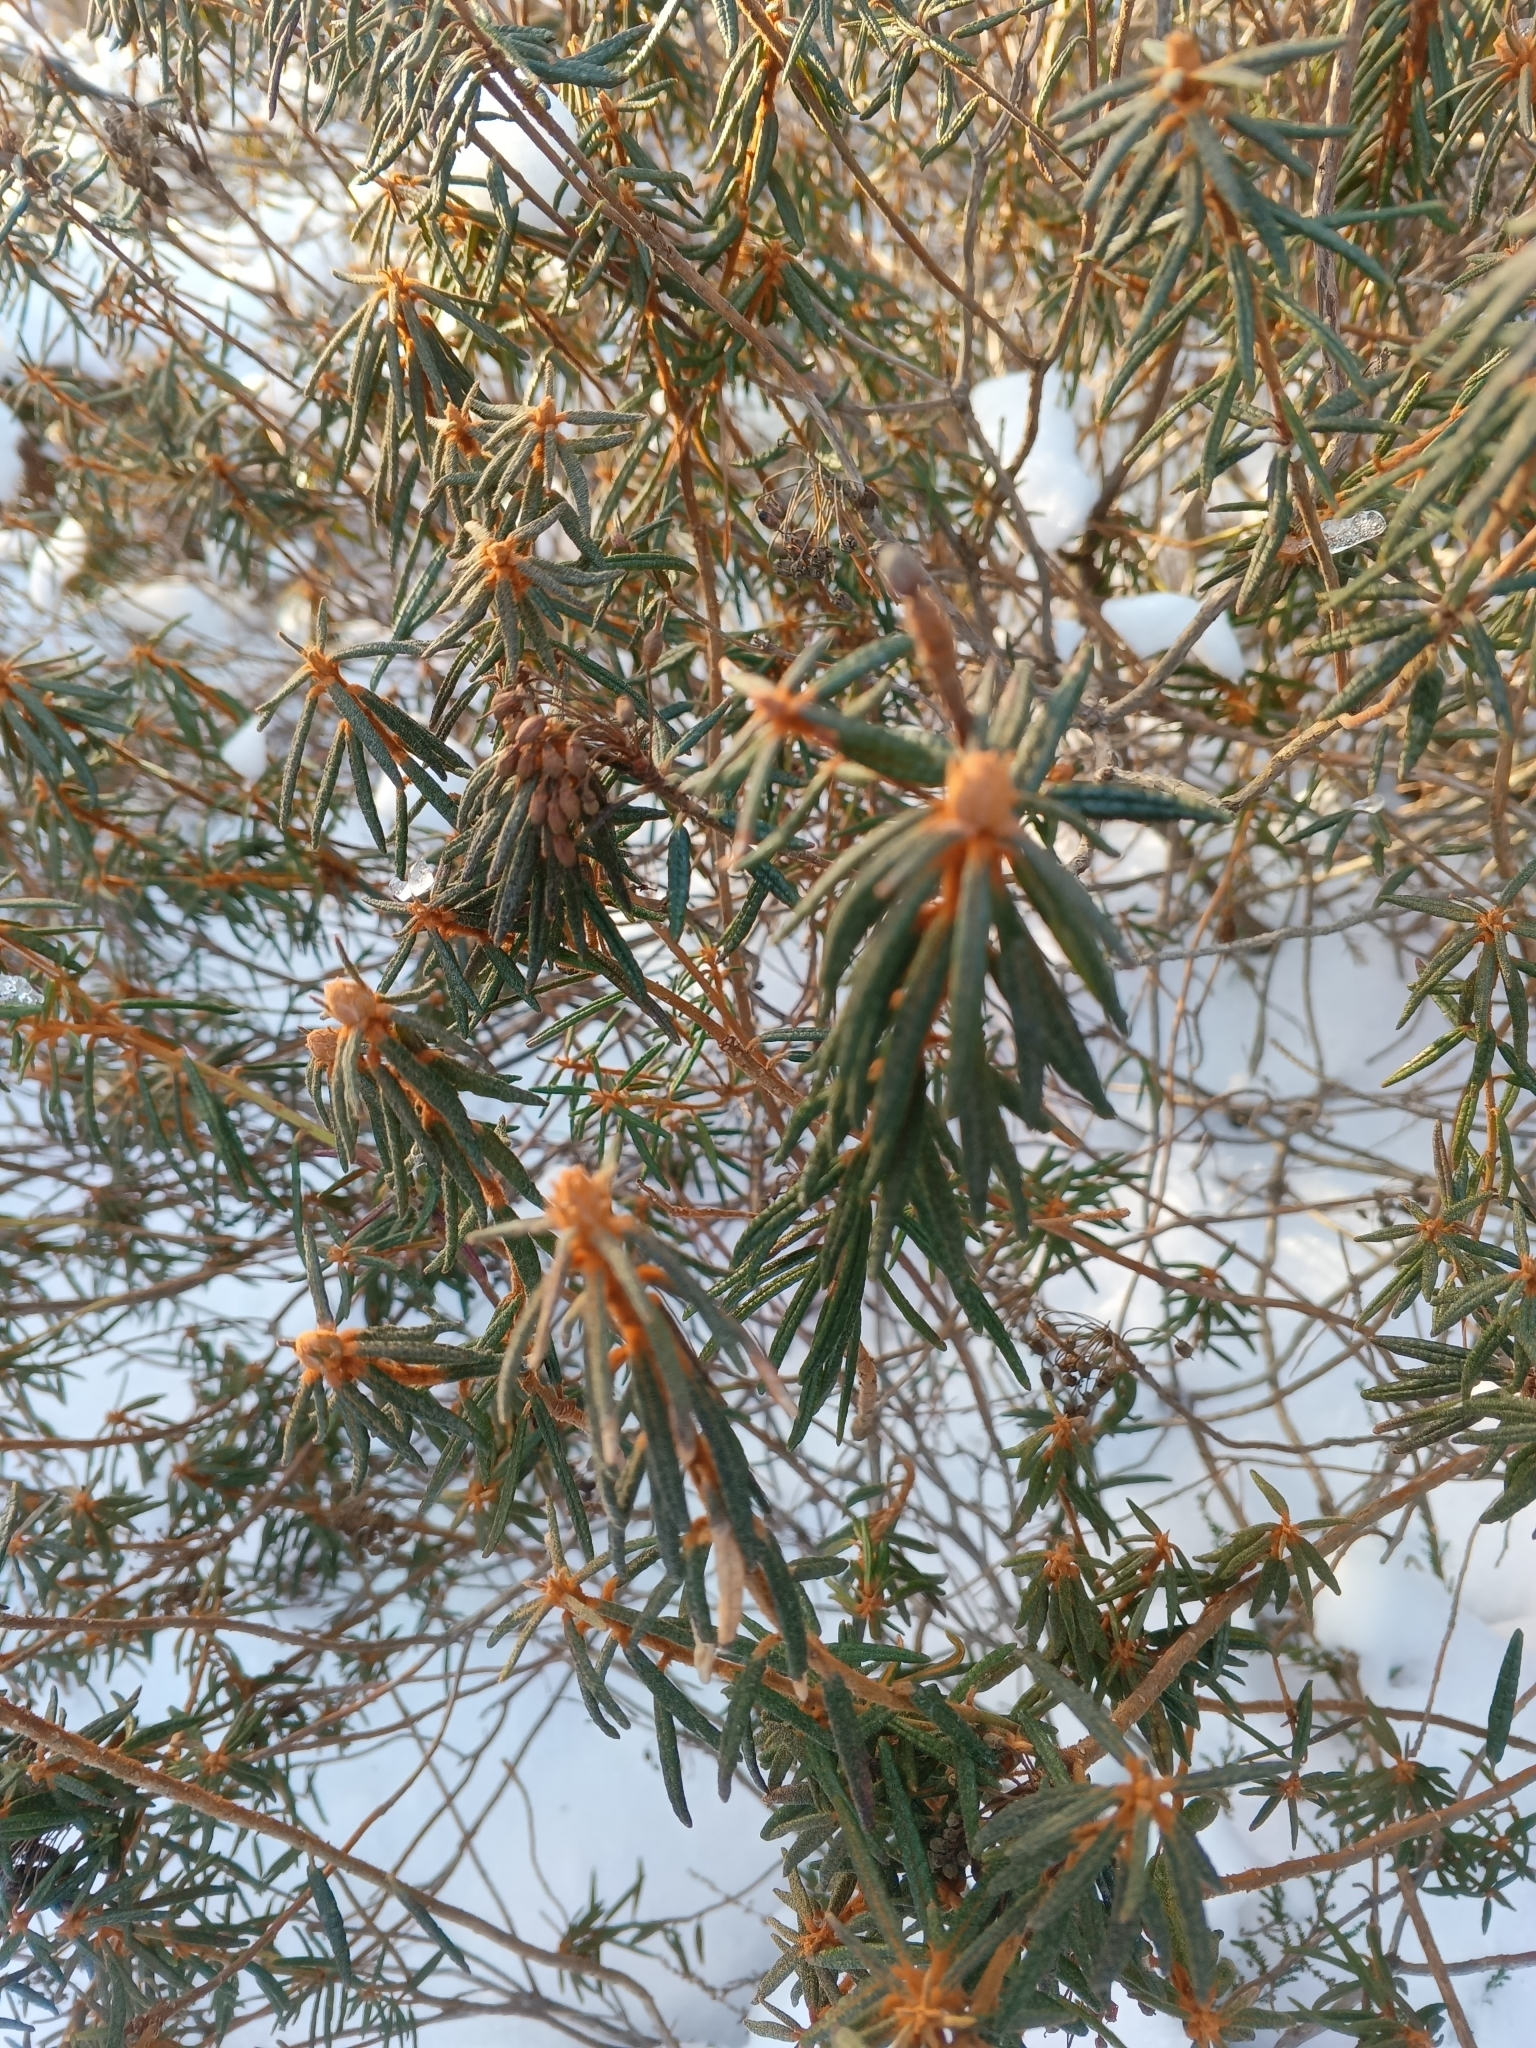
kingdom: Plantae
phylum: Tracheophyta
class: Magnoliopsida
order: Ericales
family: Ericaceae
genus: Rhododendron
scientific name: Rhododendron tomentosum
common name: Marsh labrador tea
